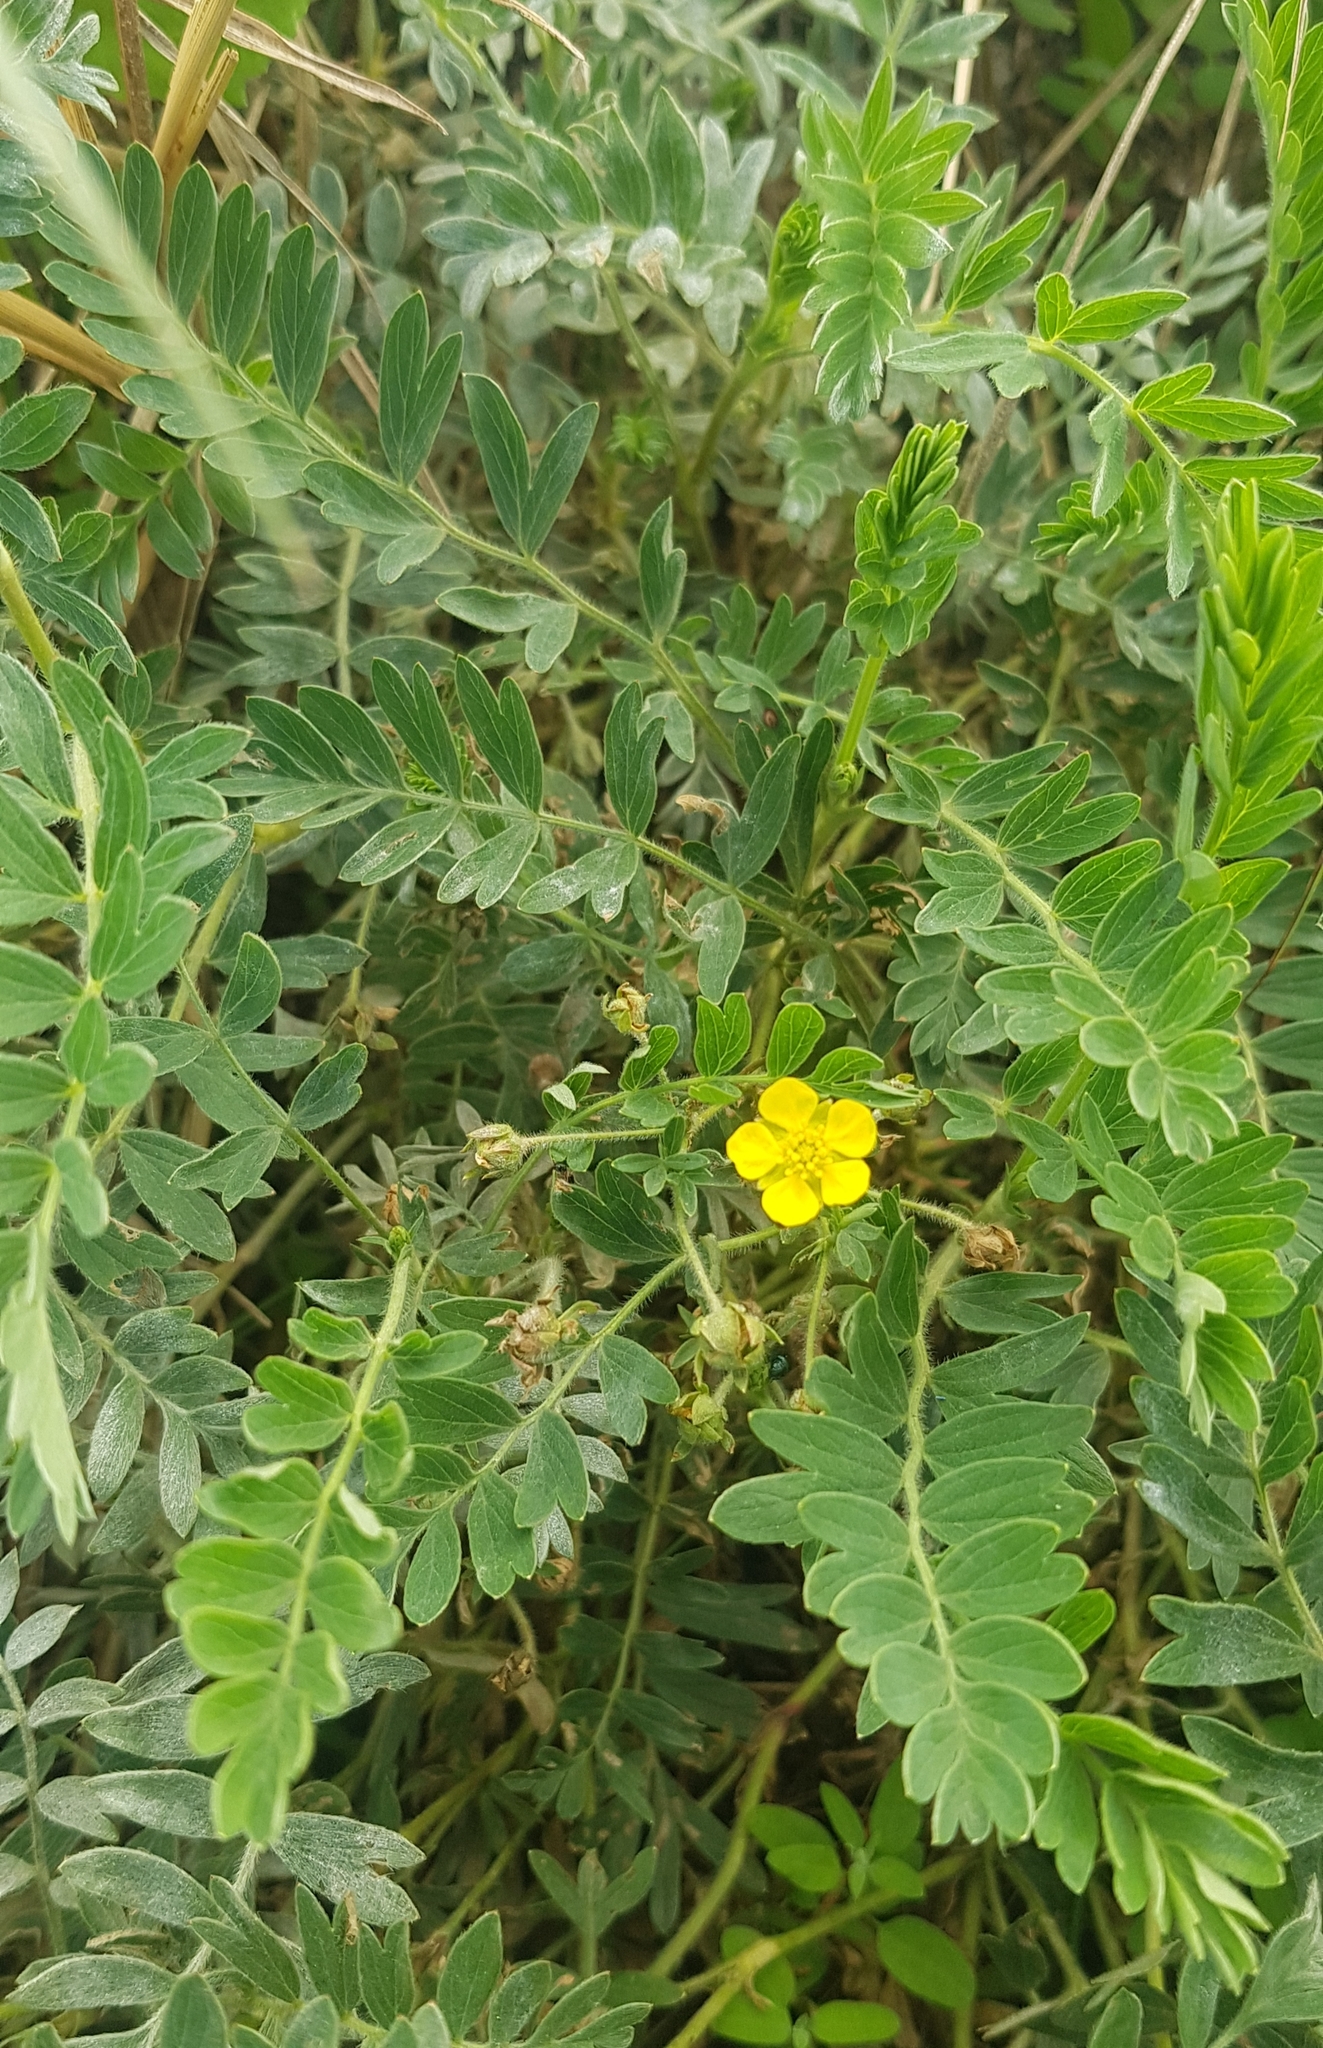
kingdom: Plantae
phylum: Tracheophyta
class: Magnoliopsida
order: Rosales
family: Rosaceae
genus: Sibbaldianthe
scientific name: Sibbaldianthe bifurca
